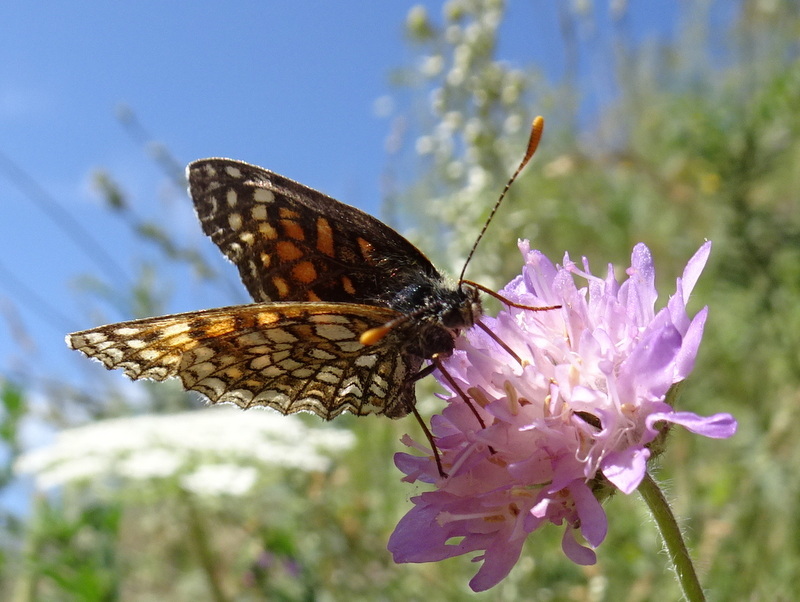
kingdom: Animalia
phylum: Arthropoda
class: Insecta
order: Lepidoptera
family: Nymphalidae
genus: Melitaea
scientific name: Melitaea diamina
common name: False heath fritillary
